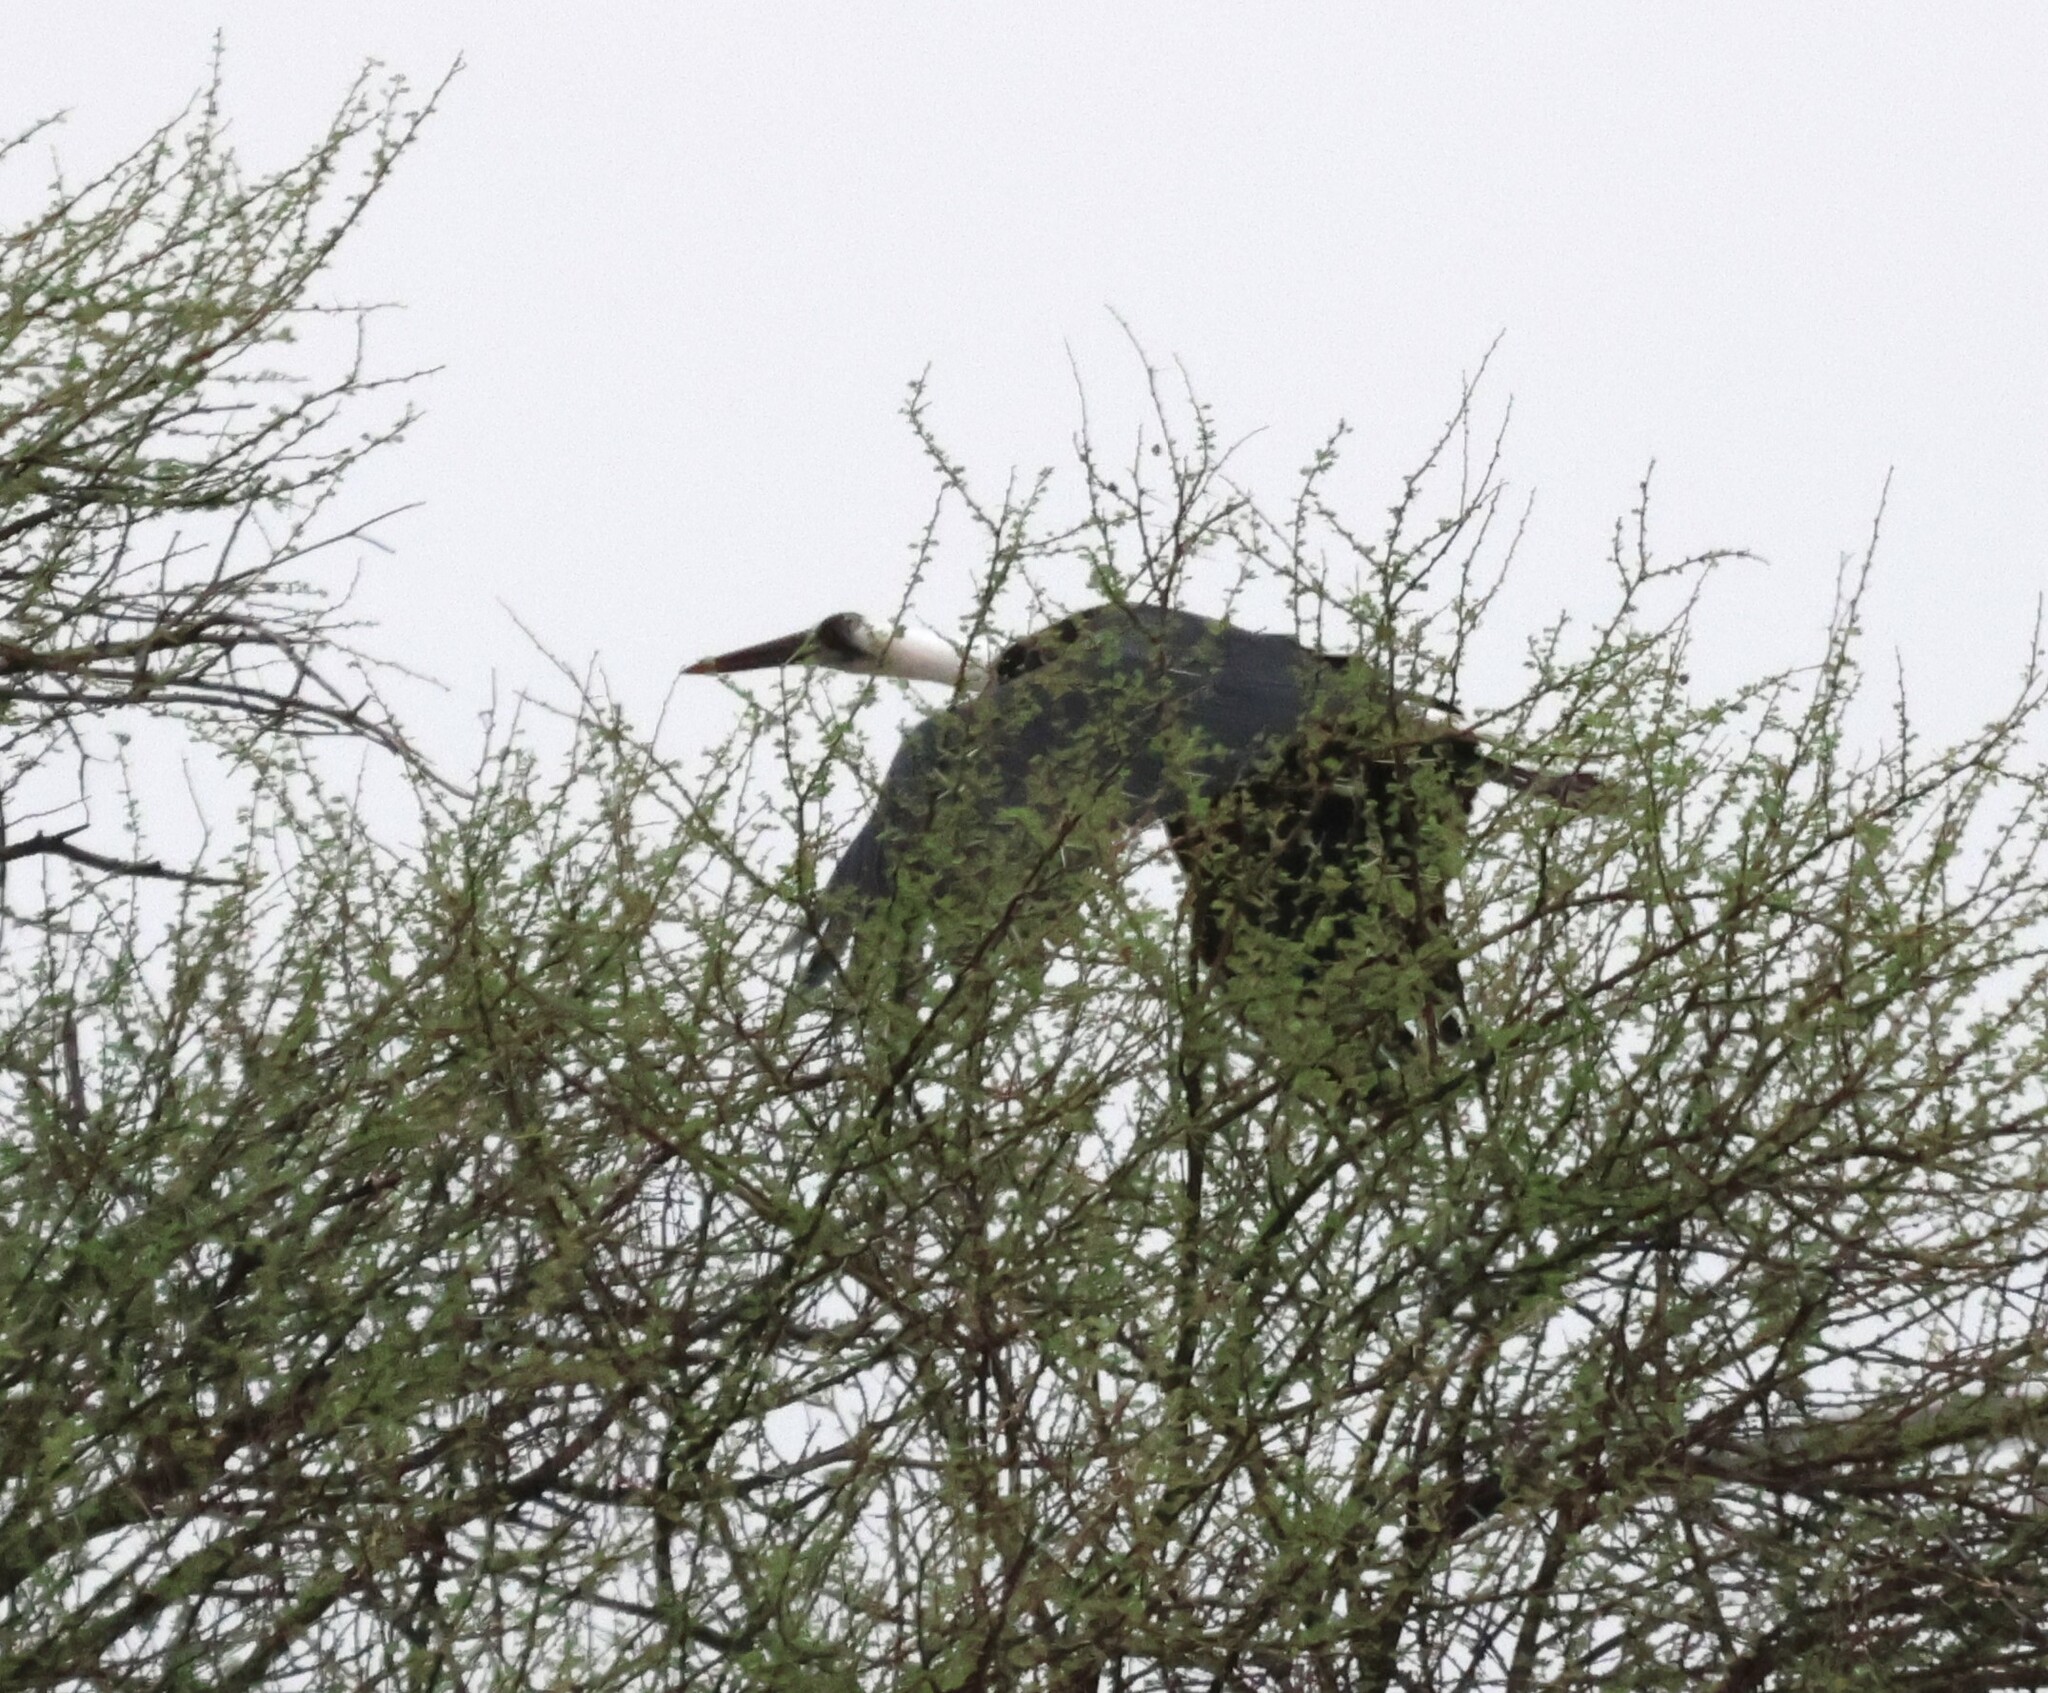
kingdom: Animalia
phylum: Chordata
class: Aves
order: Ciconiiformes
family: Ciconiidae
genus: Ciconia
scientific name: Ciconia microscelis
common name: African woollyneck
